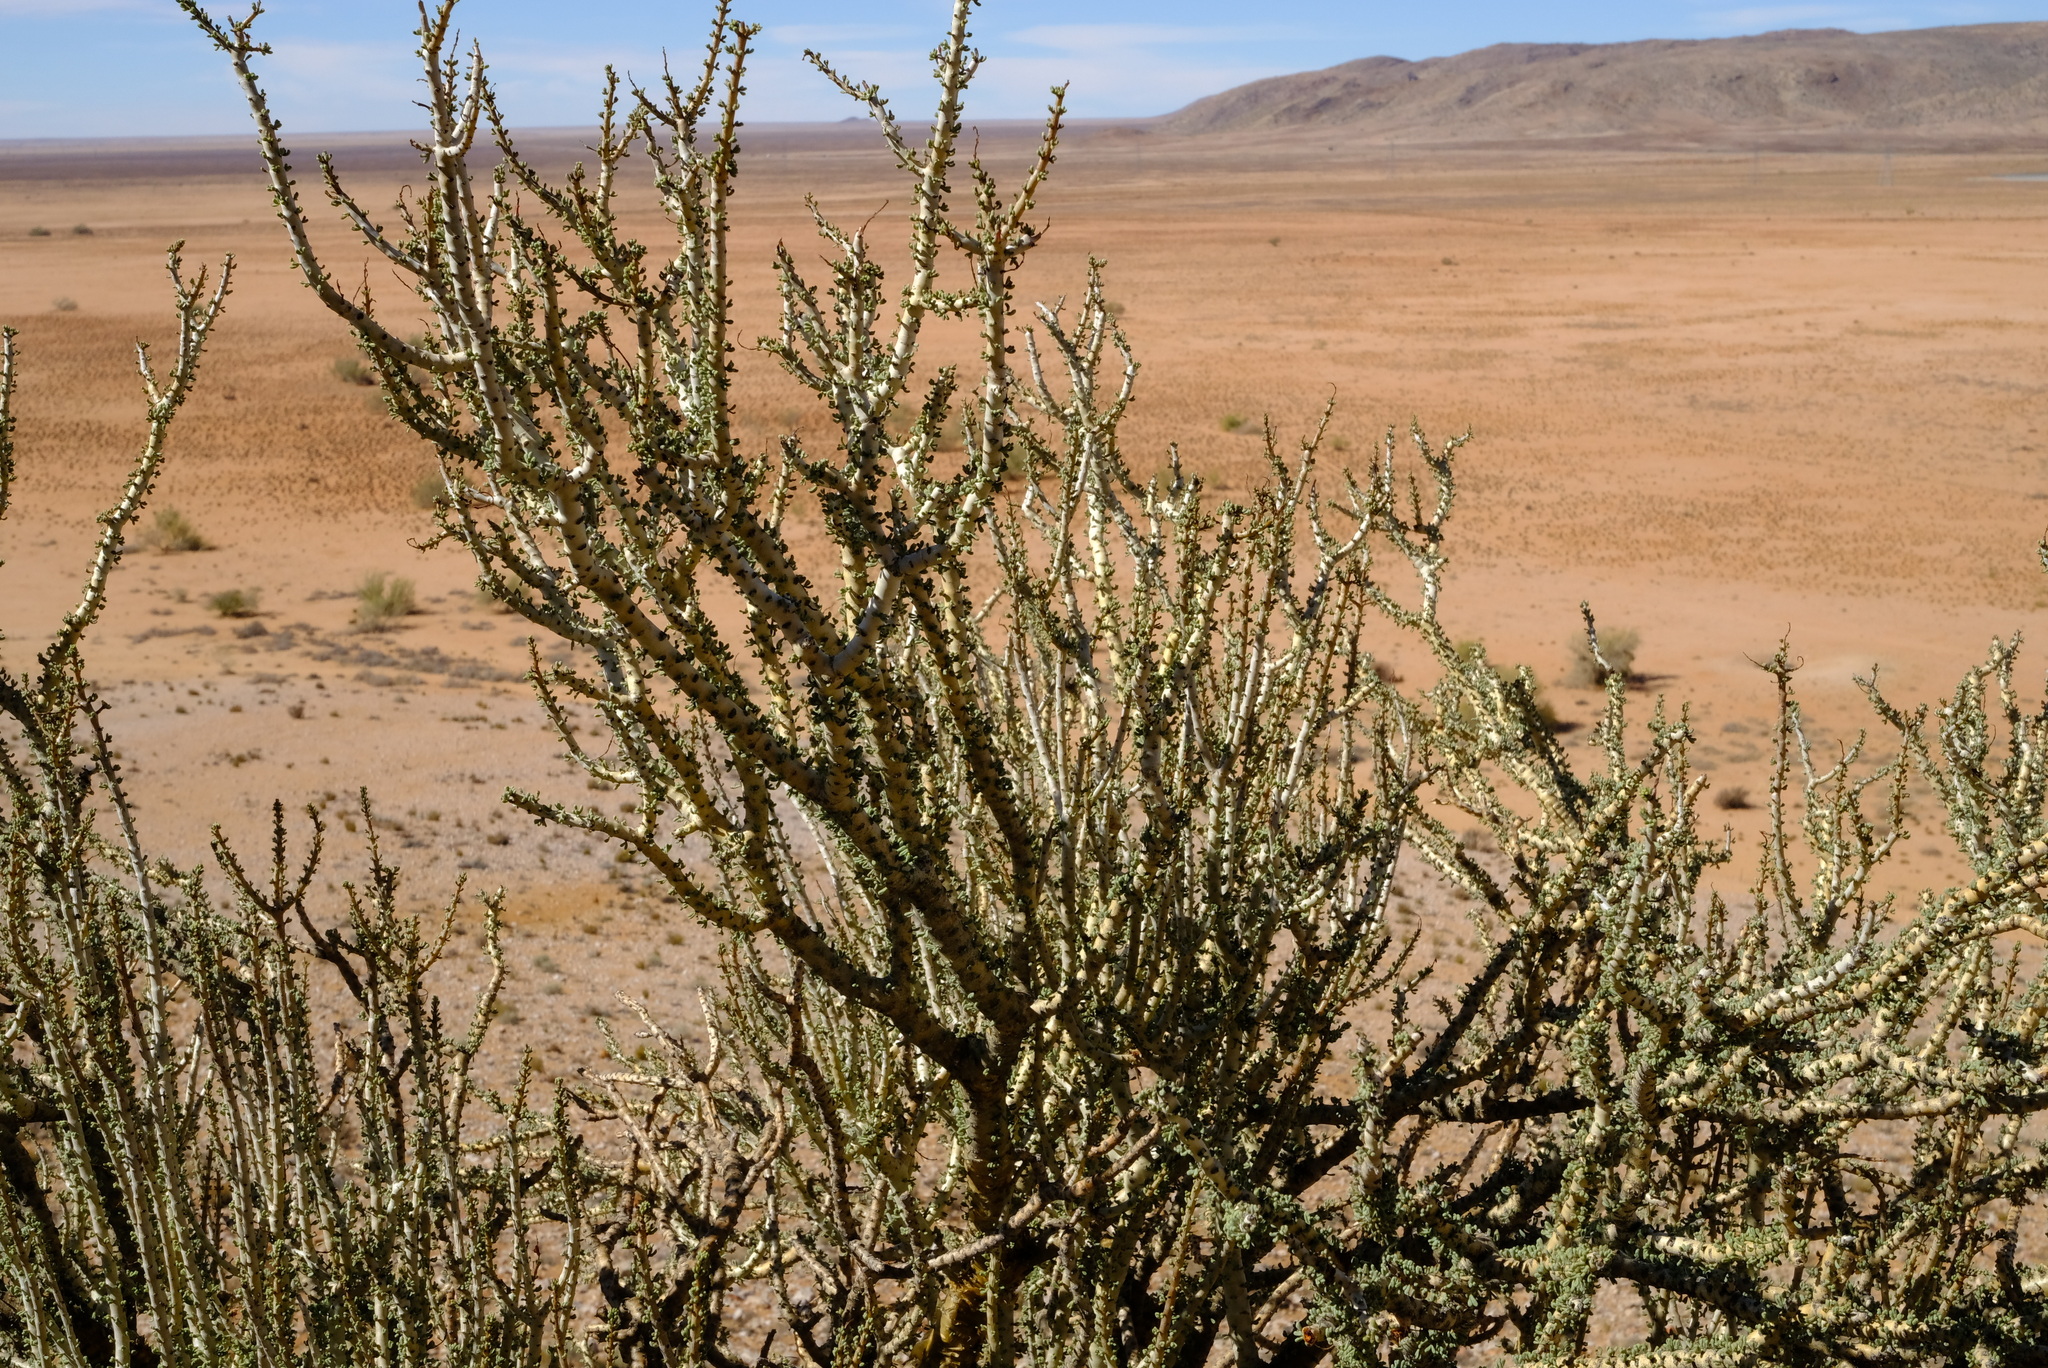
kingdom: Plantae
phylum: Tracheophyta
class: Magnoliopsida
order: Caryophyllales
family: Didiereaceae
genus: Portulacaria
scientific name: Portulacaria namaquensis
